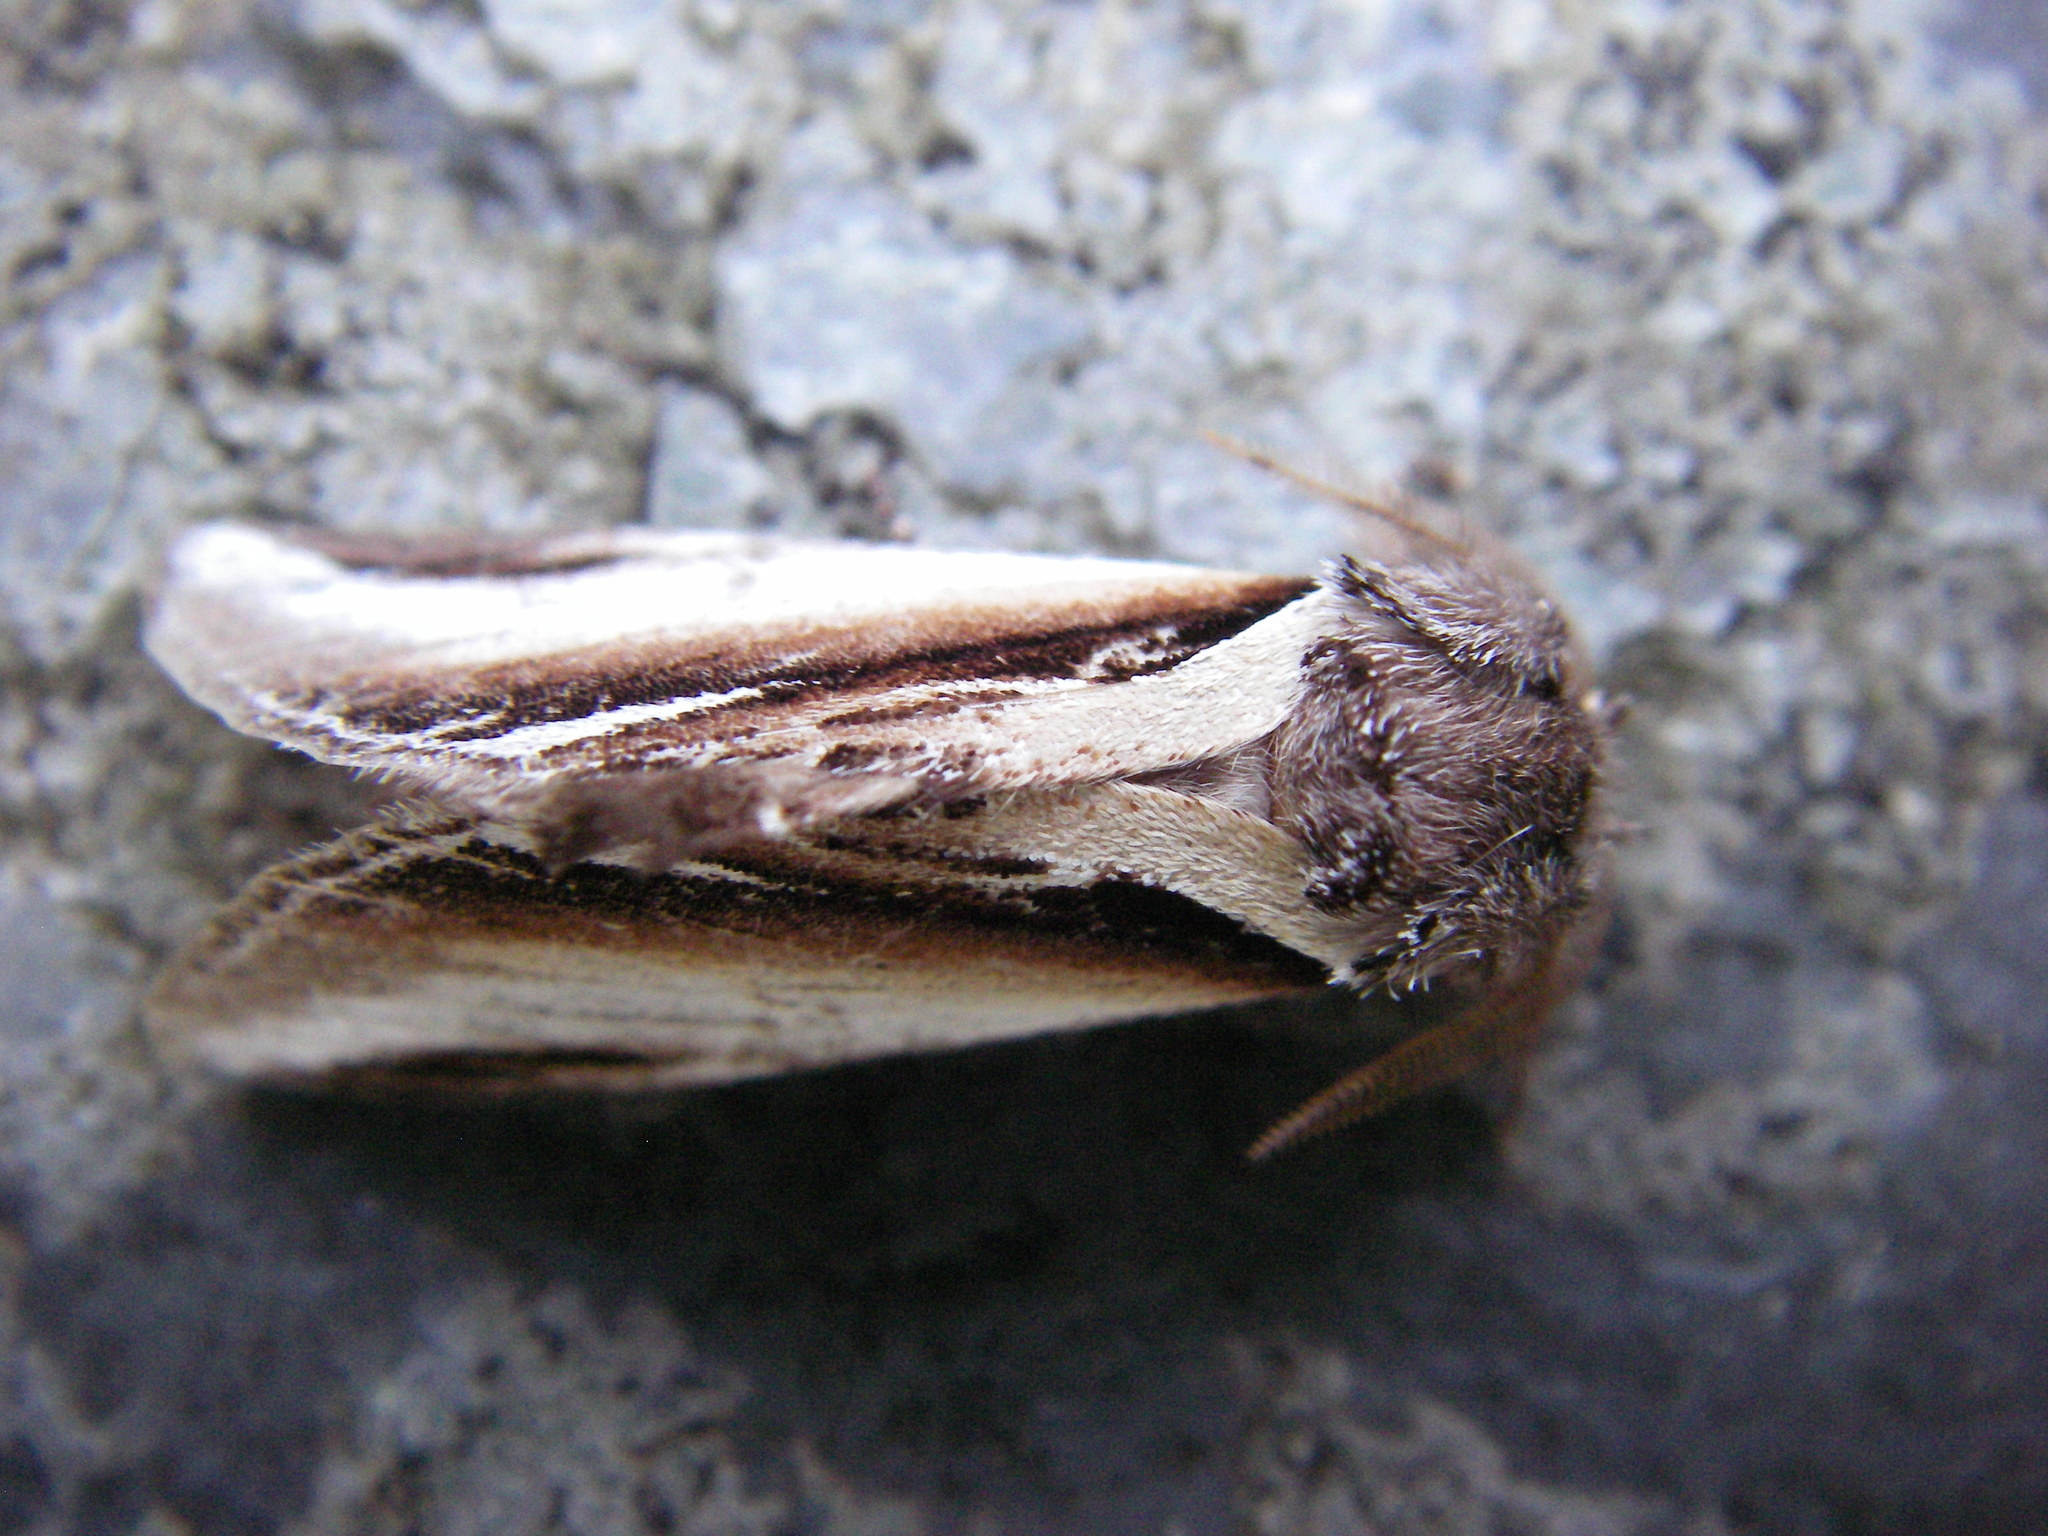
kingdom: Animalia
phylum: Arthropoda
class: Insecta
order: Lepidoptera
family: Notodontidae
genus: Pheosia
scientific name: Pheosia gnoma
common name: Lesser swallow prominent
